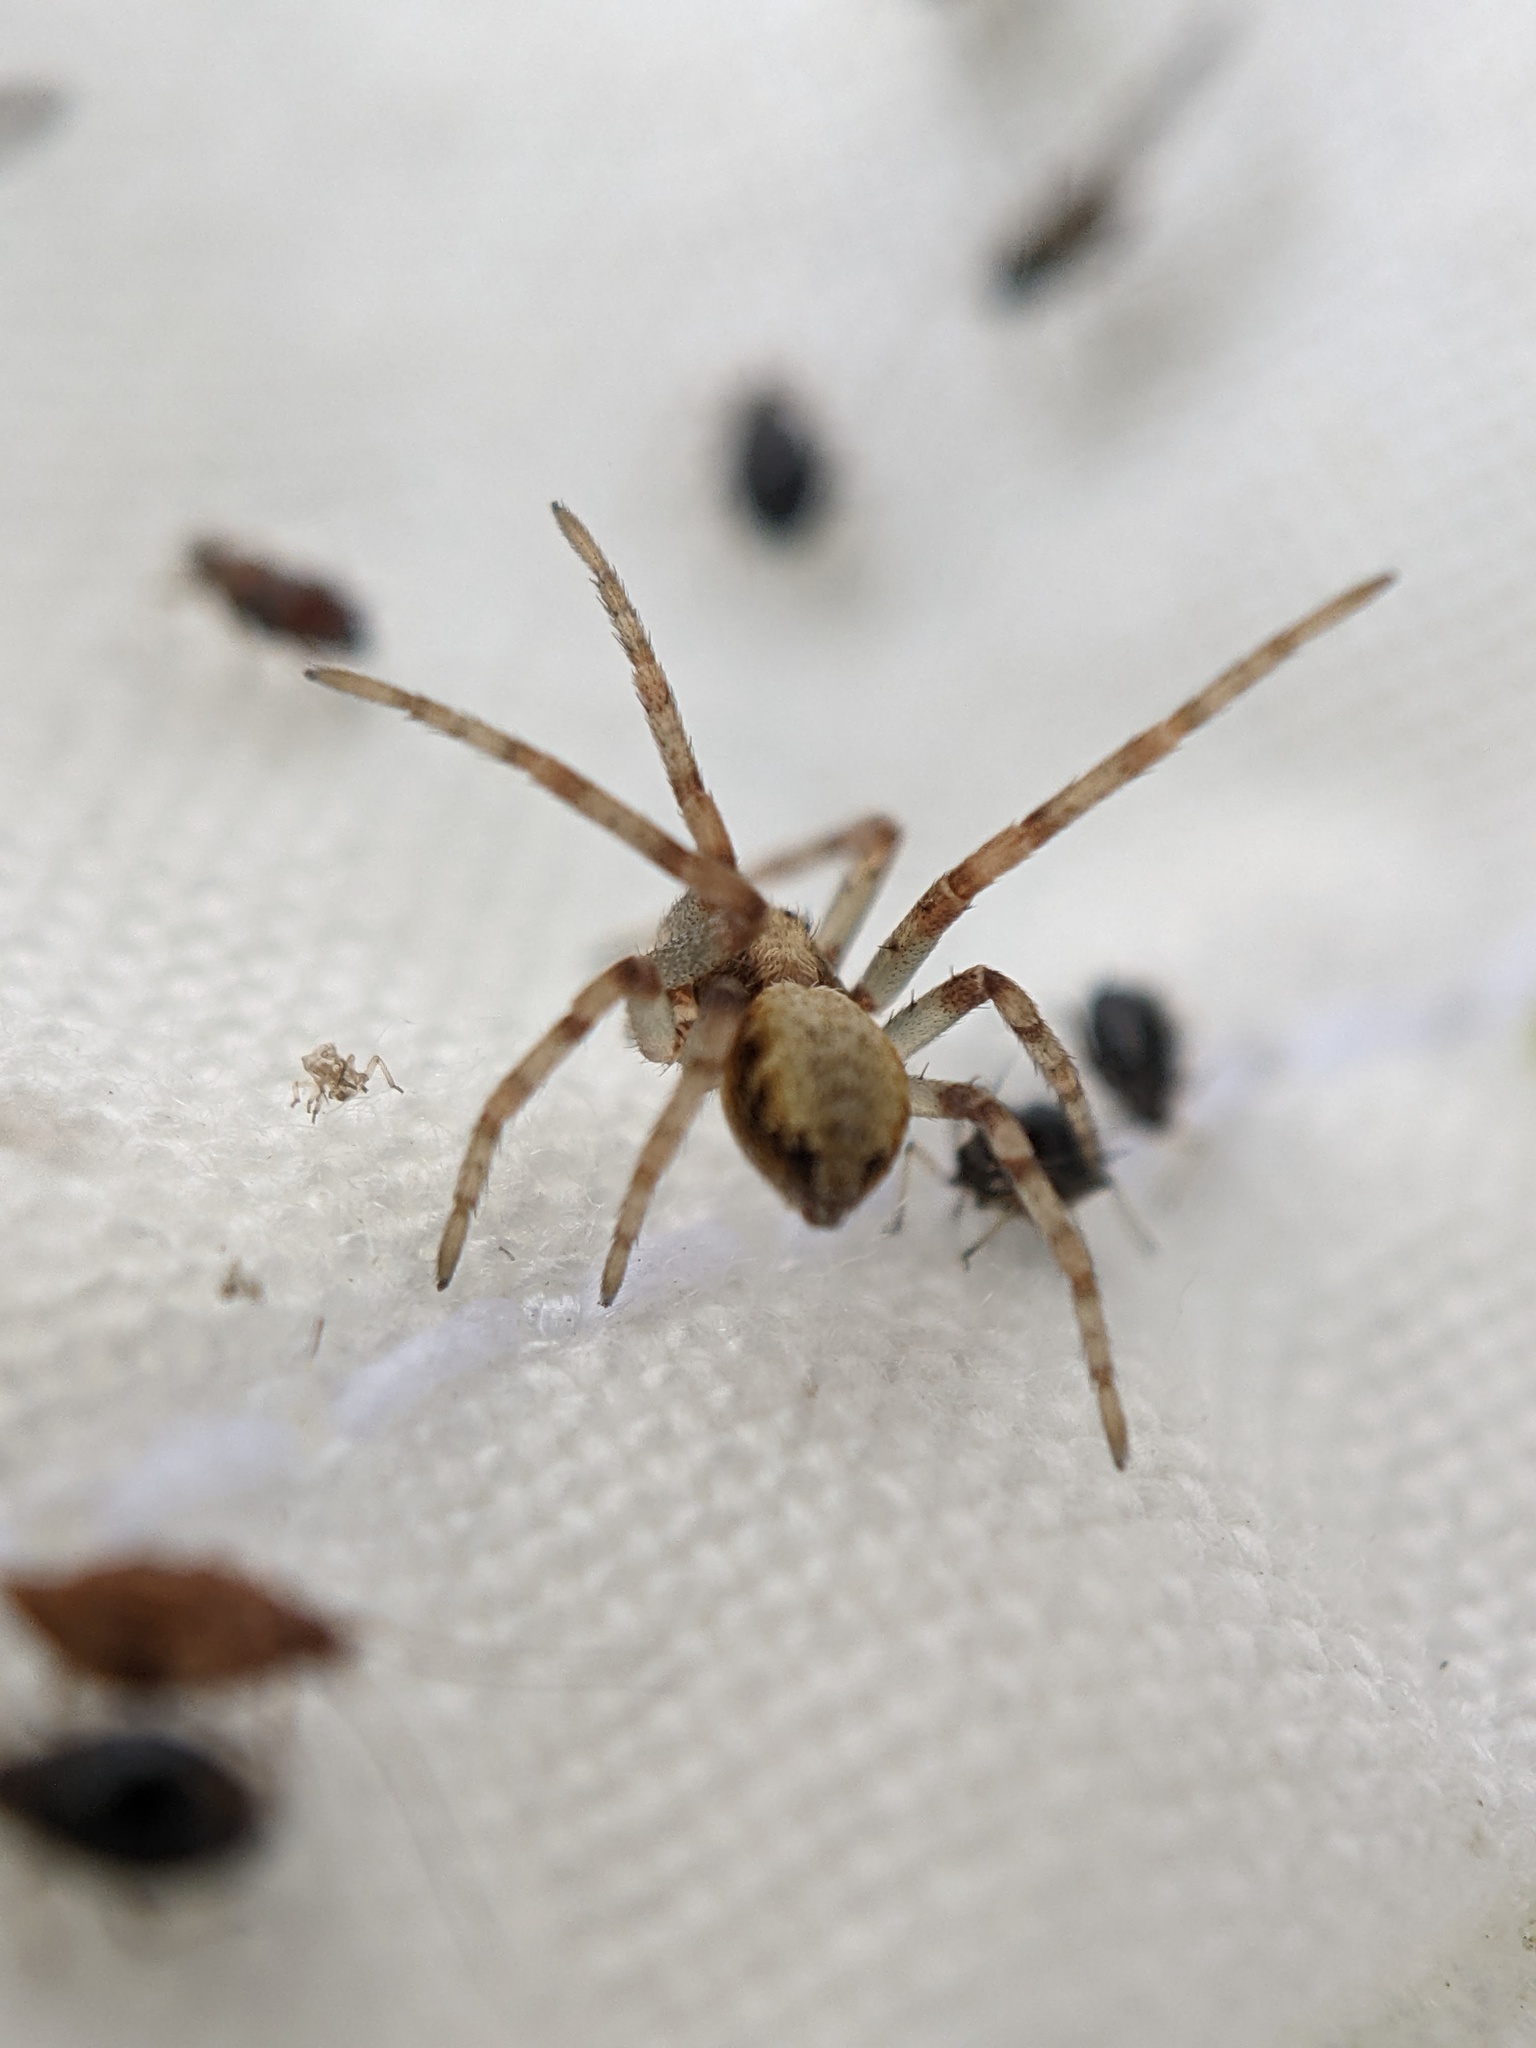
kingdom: Animalia
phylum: Arthropoda
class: Arachnida
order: Araneae
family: Philodromidae
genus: Philodromus
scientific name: Philodromus
